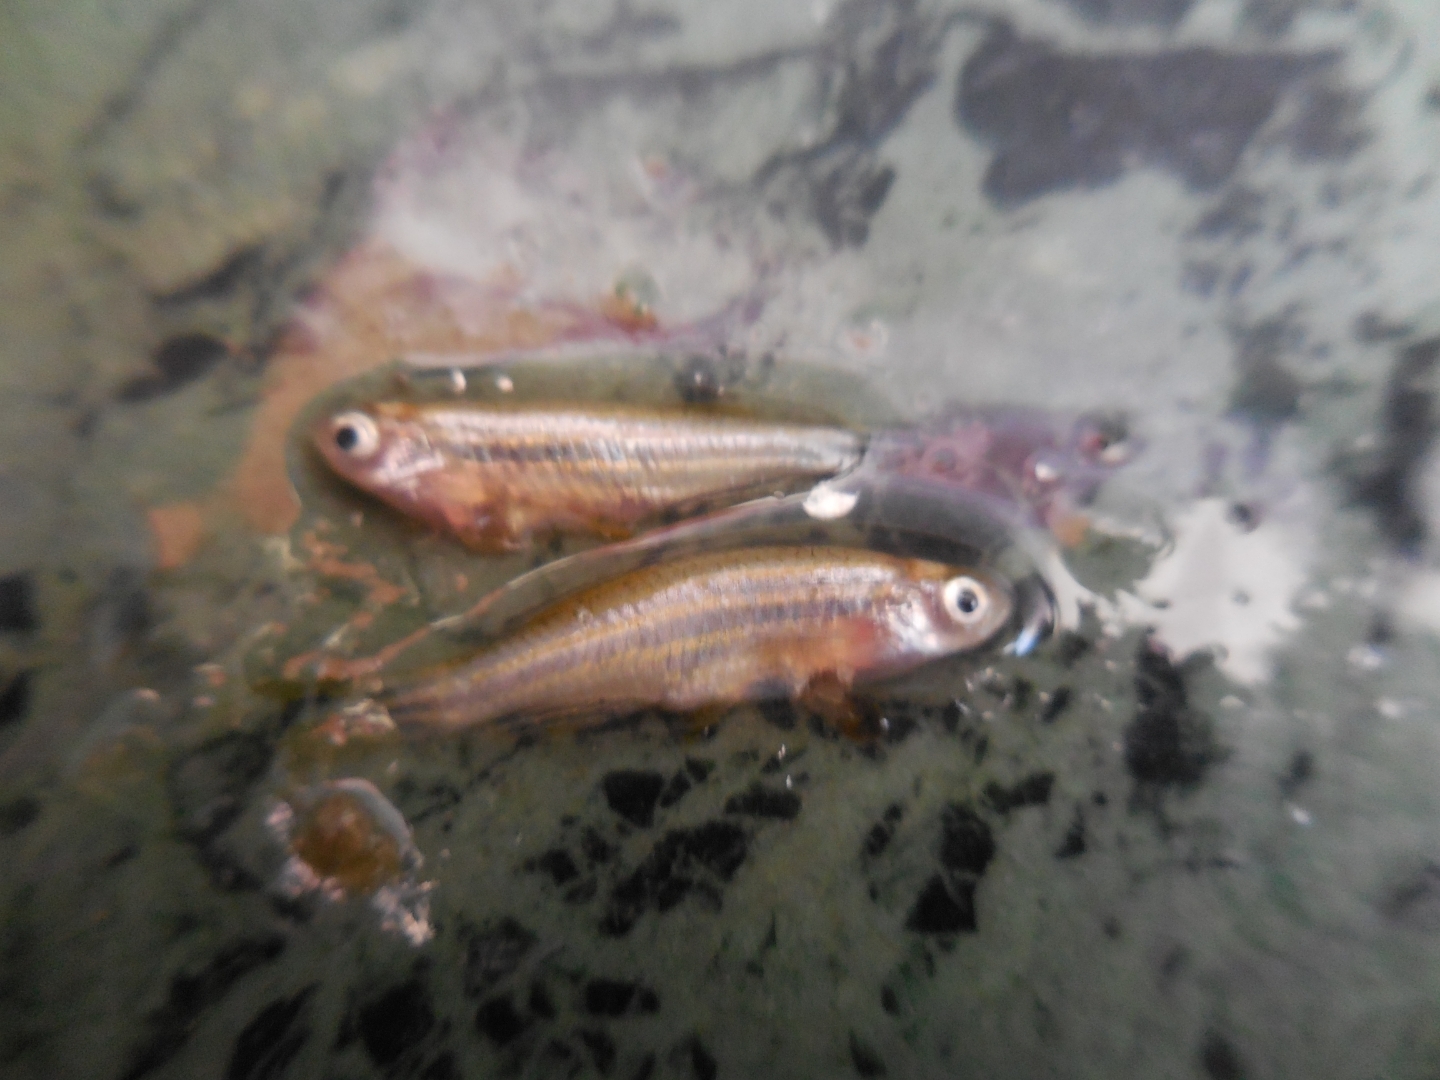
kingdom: Animalia
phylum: Chordata
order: Cypriniformes
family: Cyprinidae
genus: Danio
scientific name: Danio rerio
